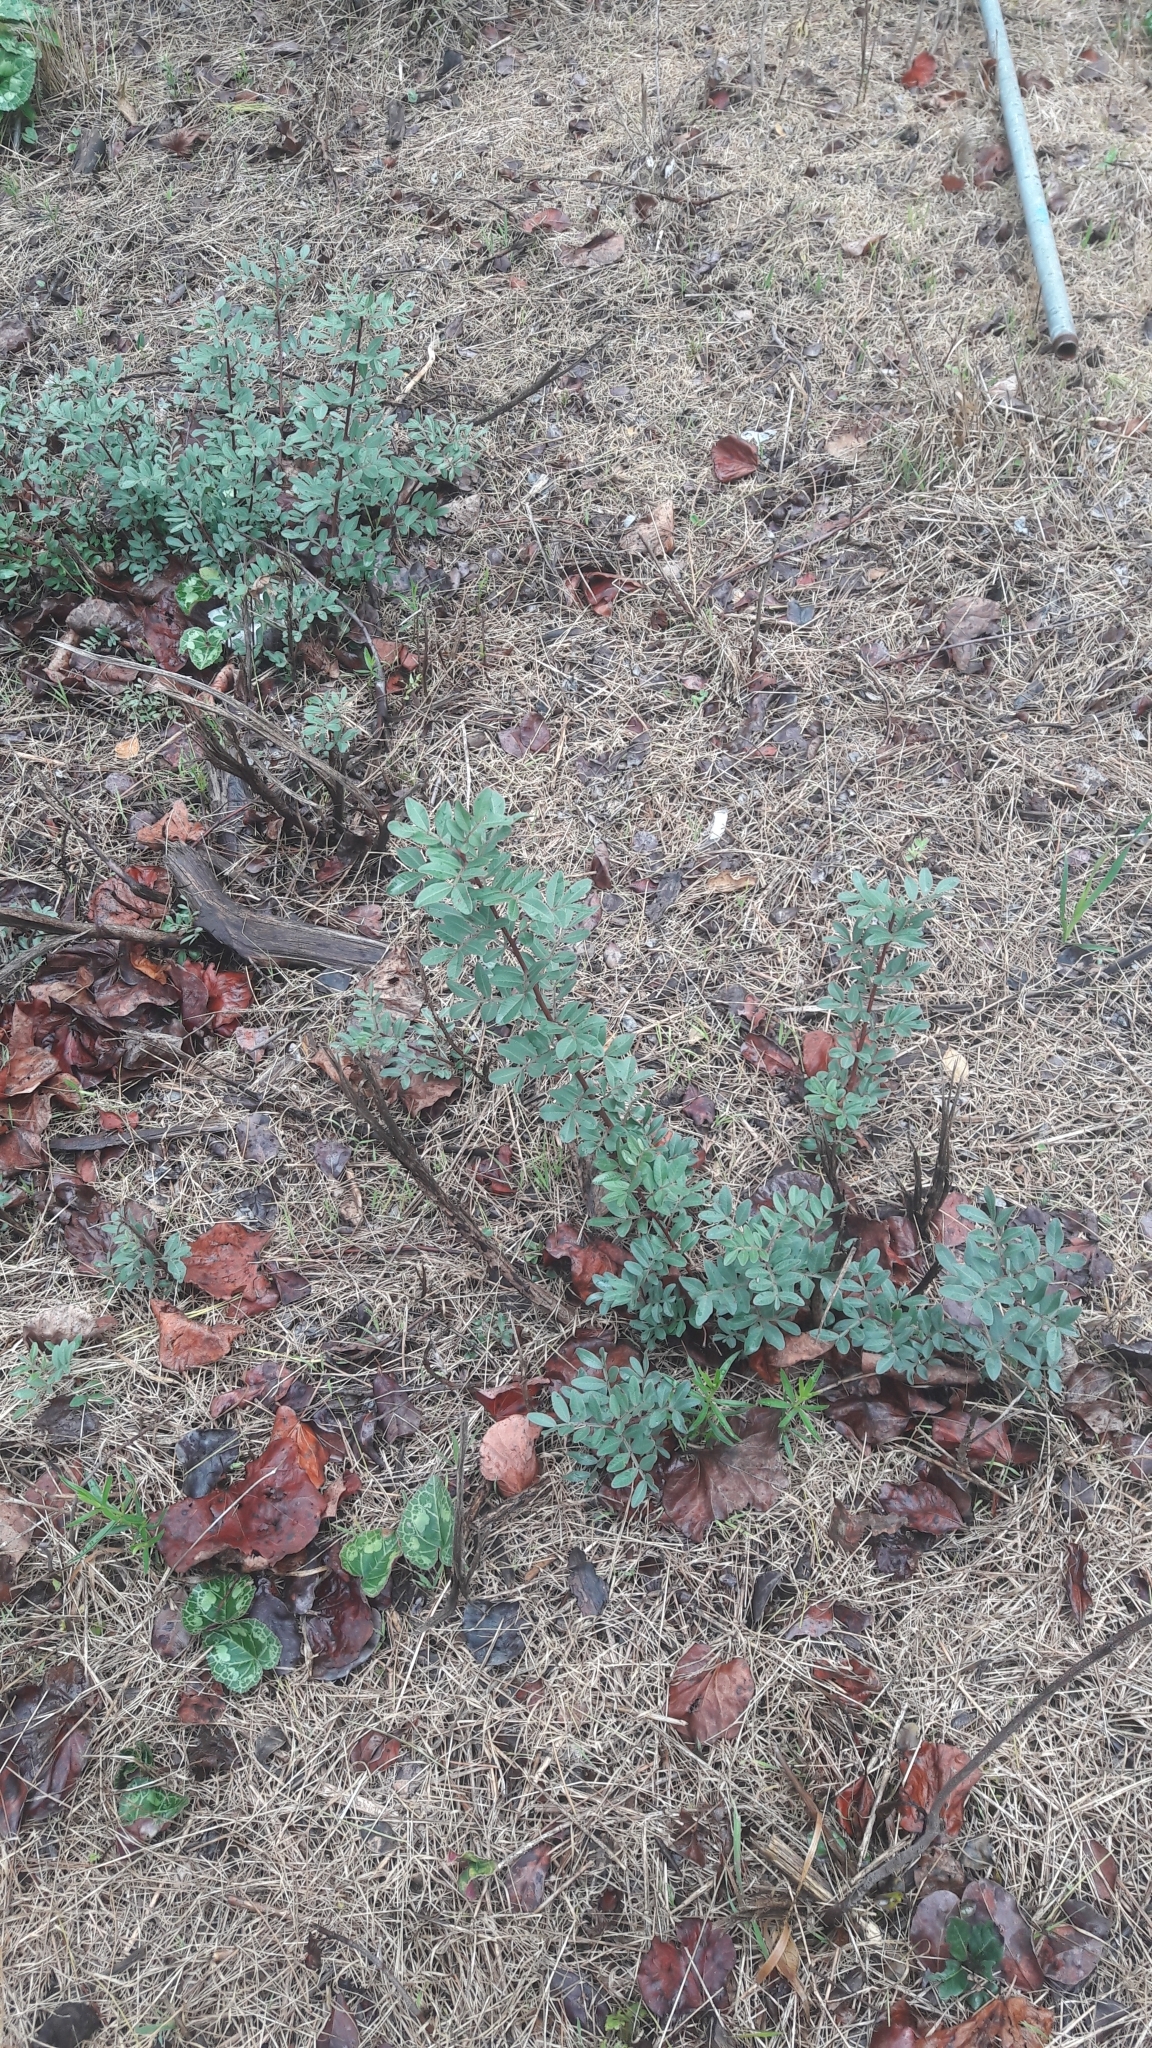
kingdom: Plantae
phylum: Tracheophyta
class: Magnoliopsida
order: Sapindales
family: Anacardiaceae
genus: Pistacia
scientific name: Pistacia lentiscus
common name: Lentisk
